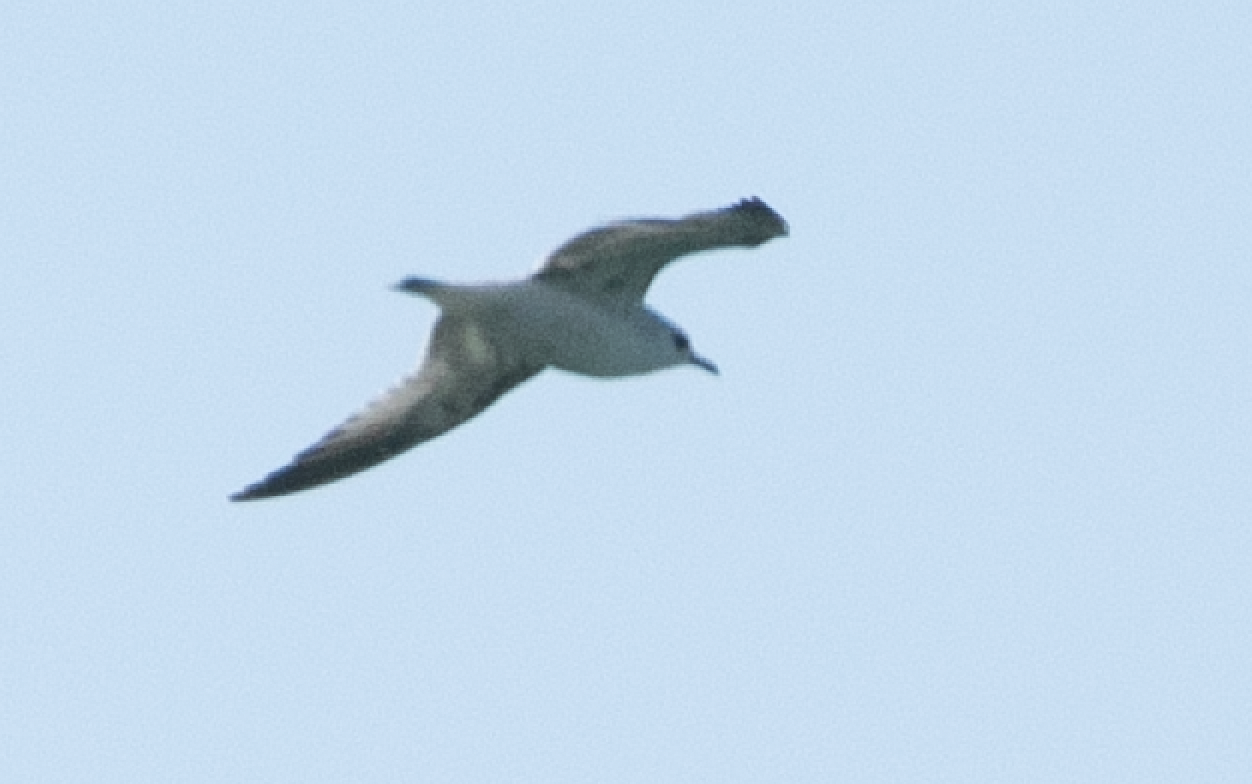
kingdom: Animalia
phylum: Chordata
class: Aves
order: Charadriiformes
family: Laridae
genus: Larus
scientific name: Larus canus
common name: Mew gull
